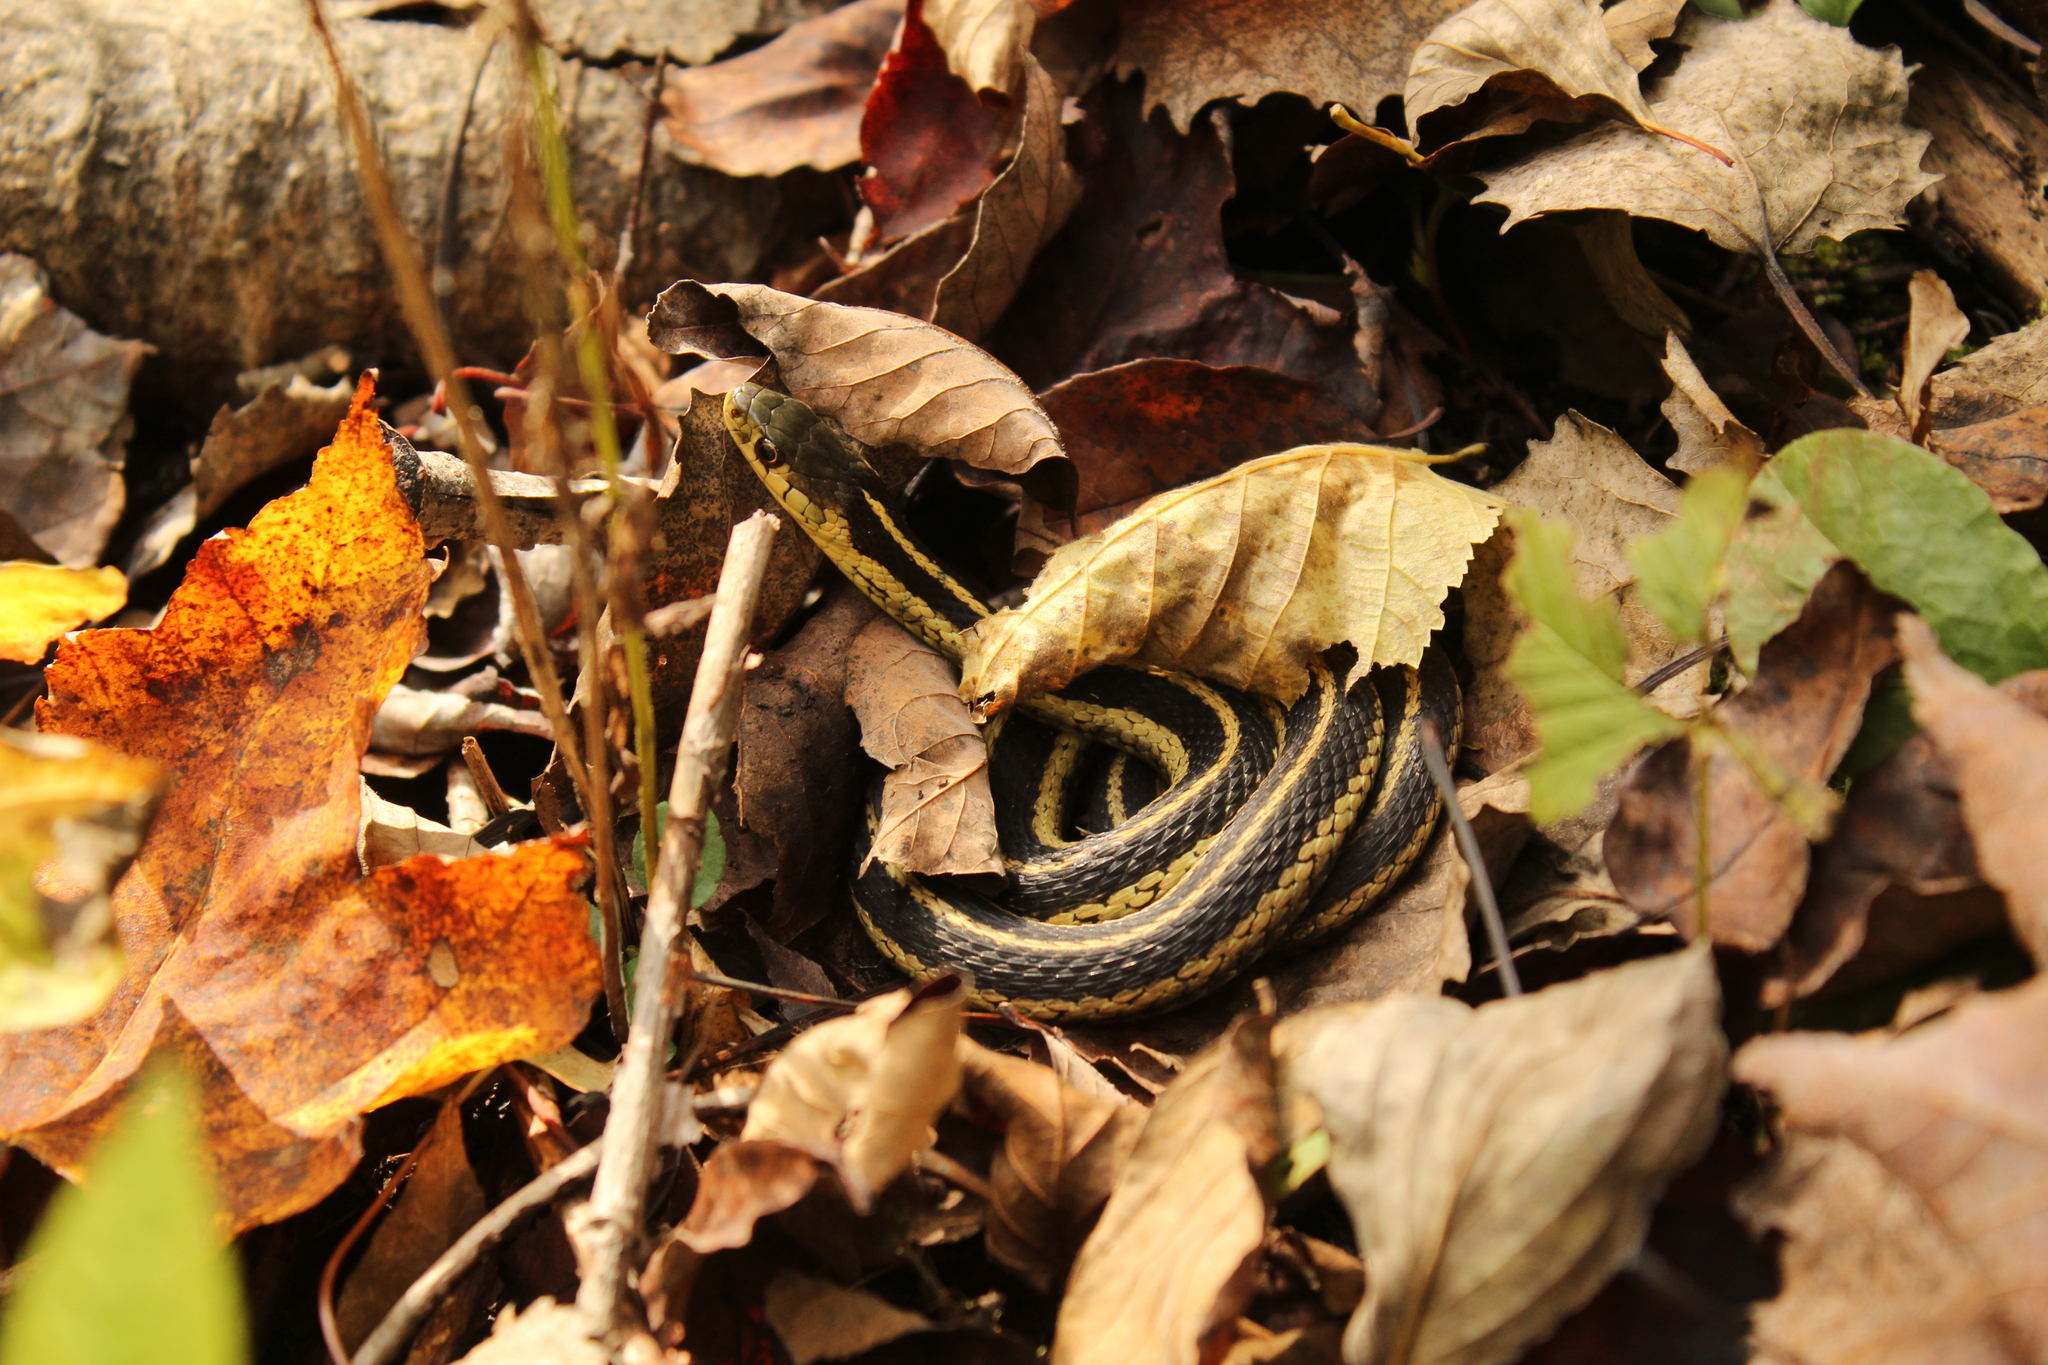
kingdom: Animalia
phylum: Chordata
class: Squamata
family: Colubridae
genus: Thamnophis
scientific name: Thamnophis sirtalis
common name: Common garter snake
